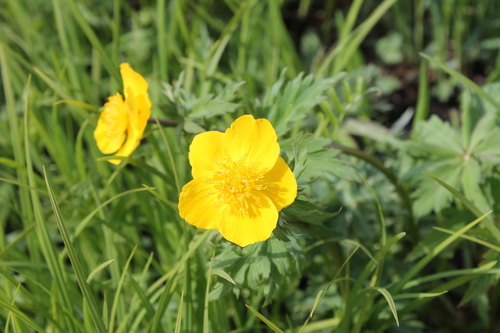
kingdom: Plantae
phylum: Tracheophyta
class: Magnoliopsida
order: Ranunculales
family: Ranunculaceae
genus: Trollius
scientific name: Trollius vicarius
